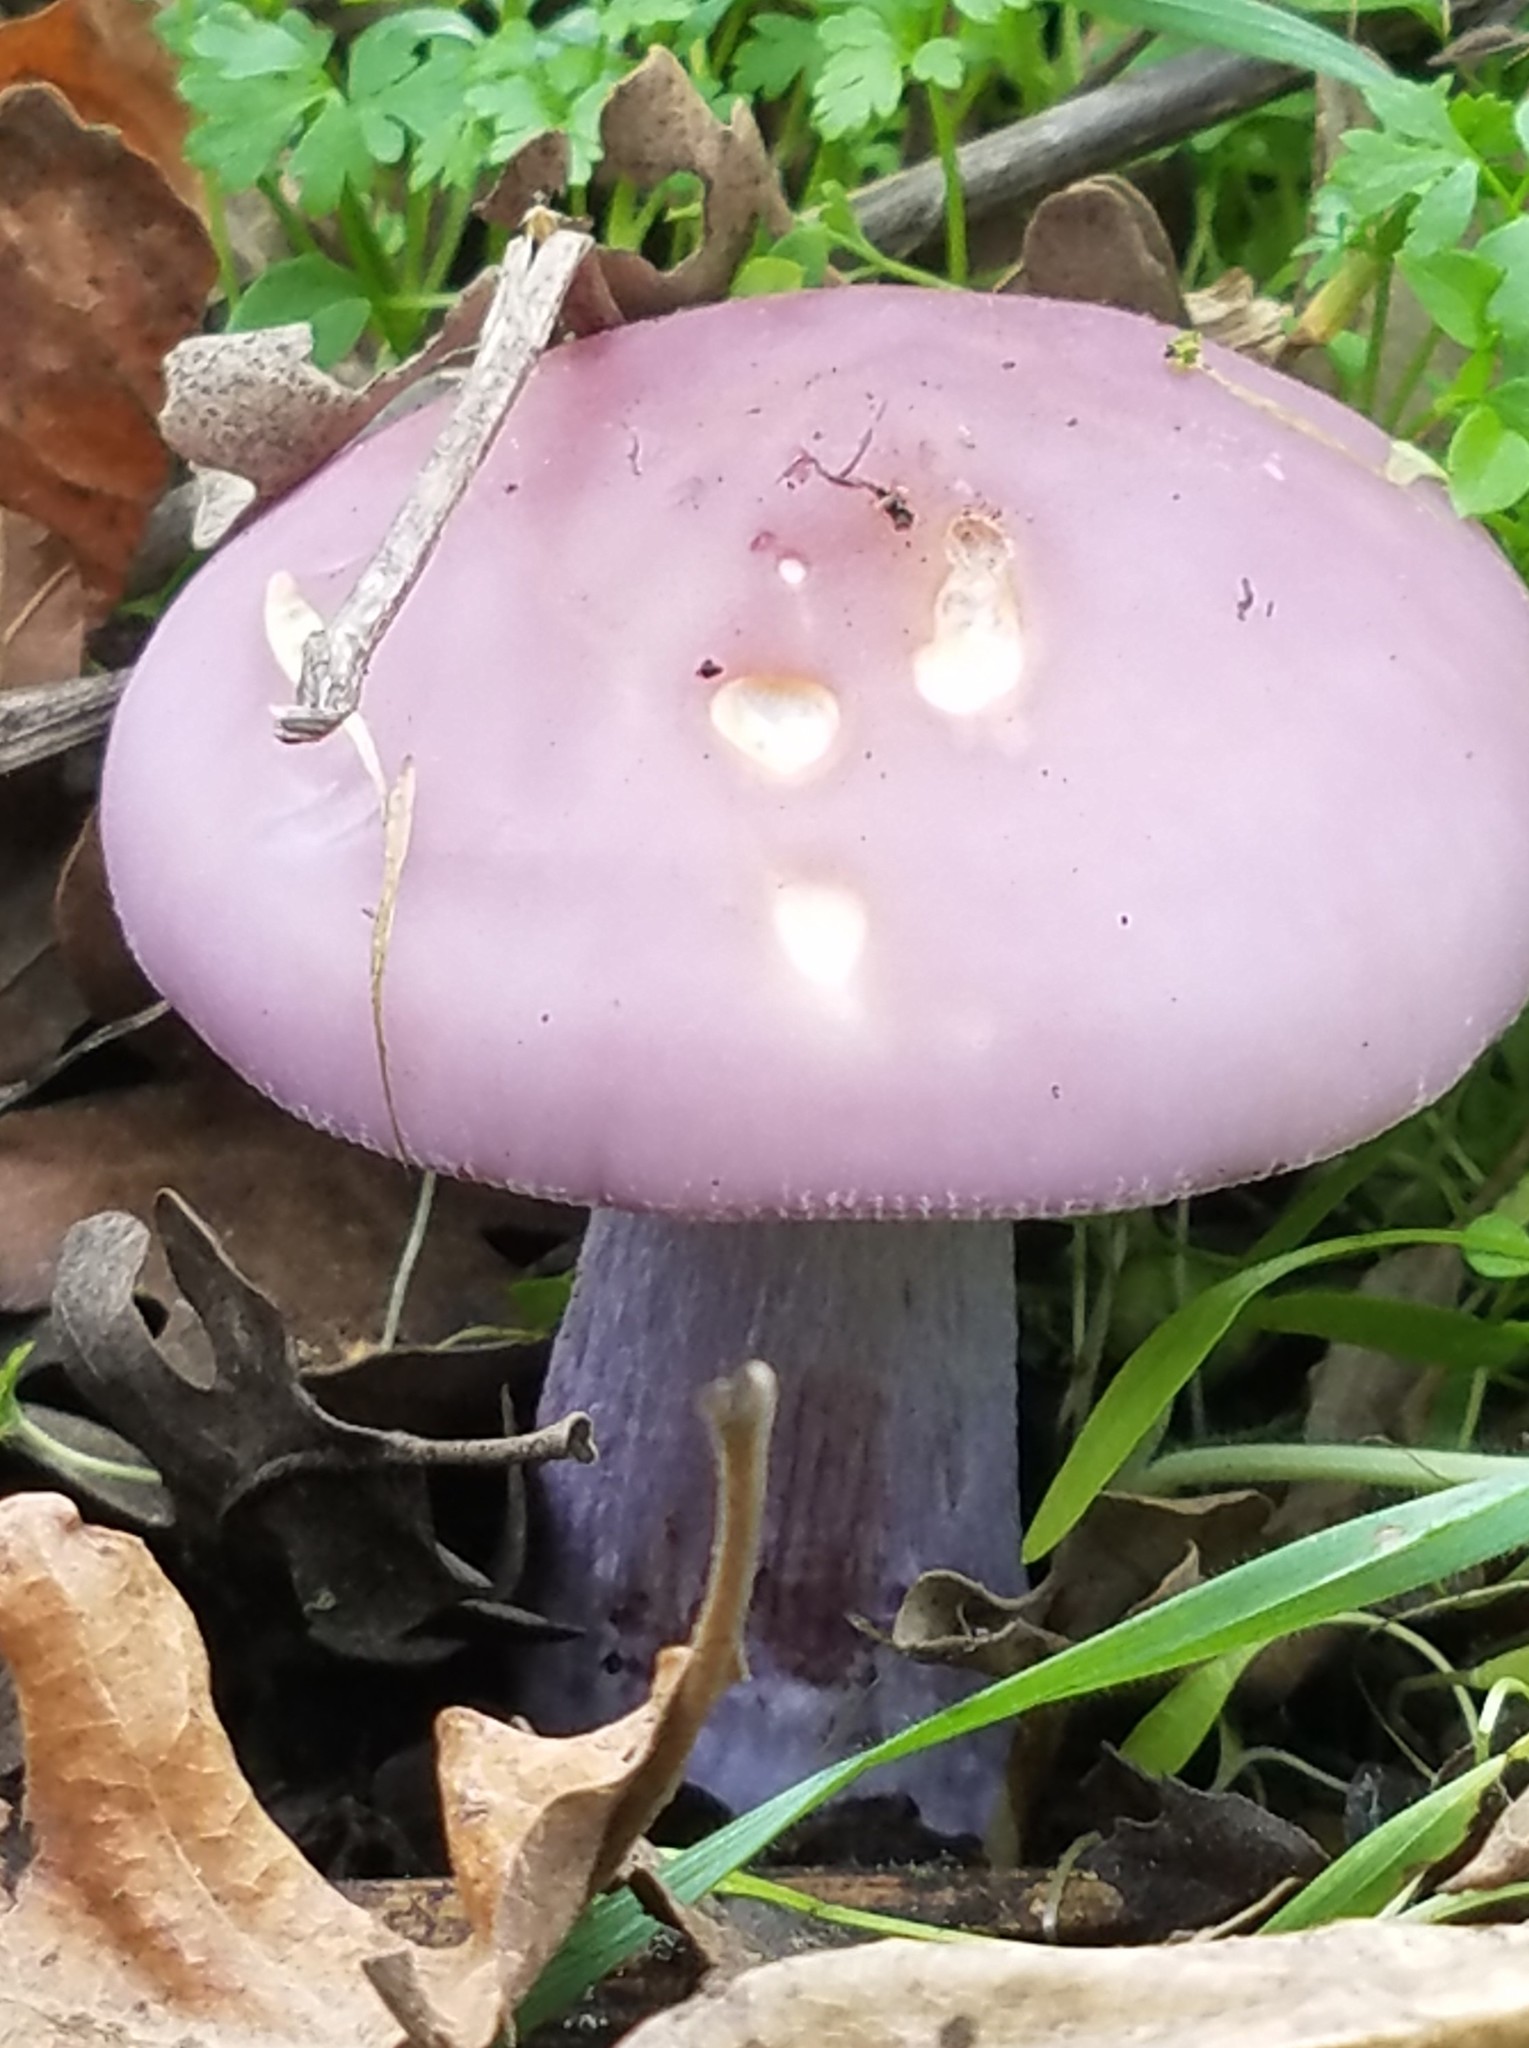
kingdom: Fungi
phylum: Basidiomycota
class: Agaricomycetes
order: Agaricales
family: Tricholomataceae
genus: Collybia
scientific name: Collybia
